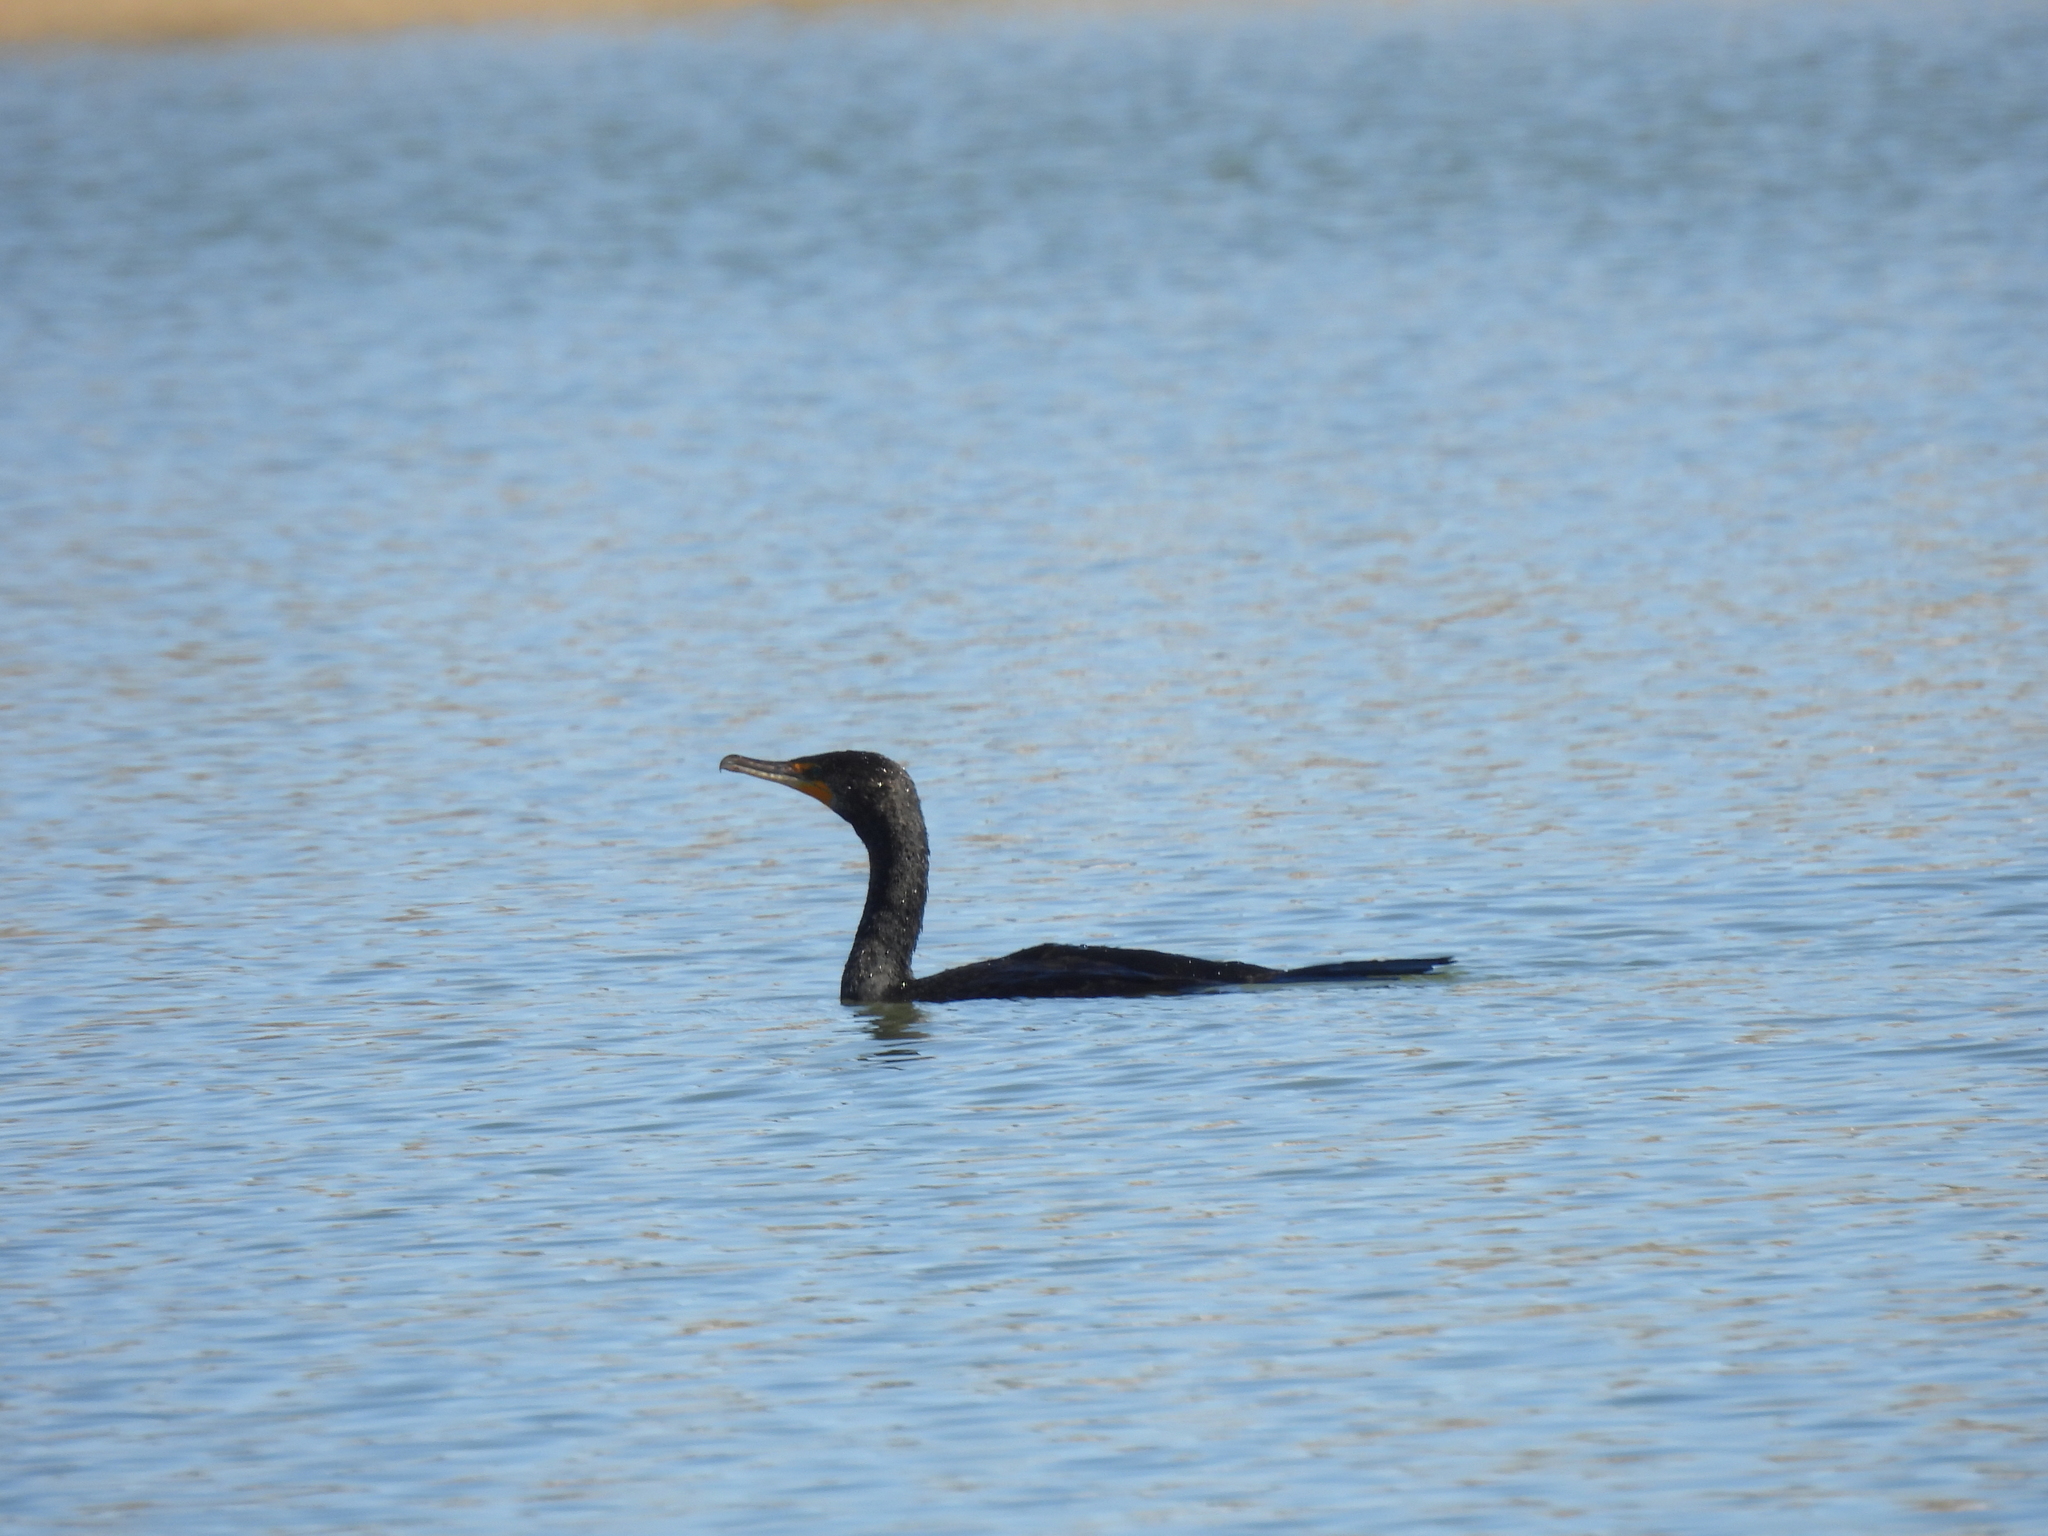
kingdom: Animalia
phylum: Chordata
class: Aves
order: Suliformes
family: Phalacrocoracidae
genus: Phalacrocorax
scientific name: Phalacrocorax auritus
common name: Double-crested cormorant
